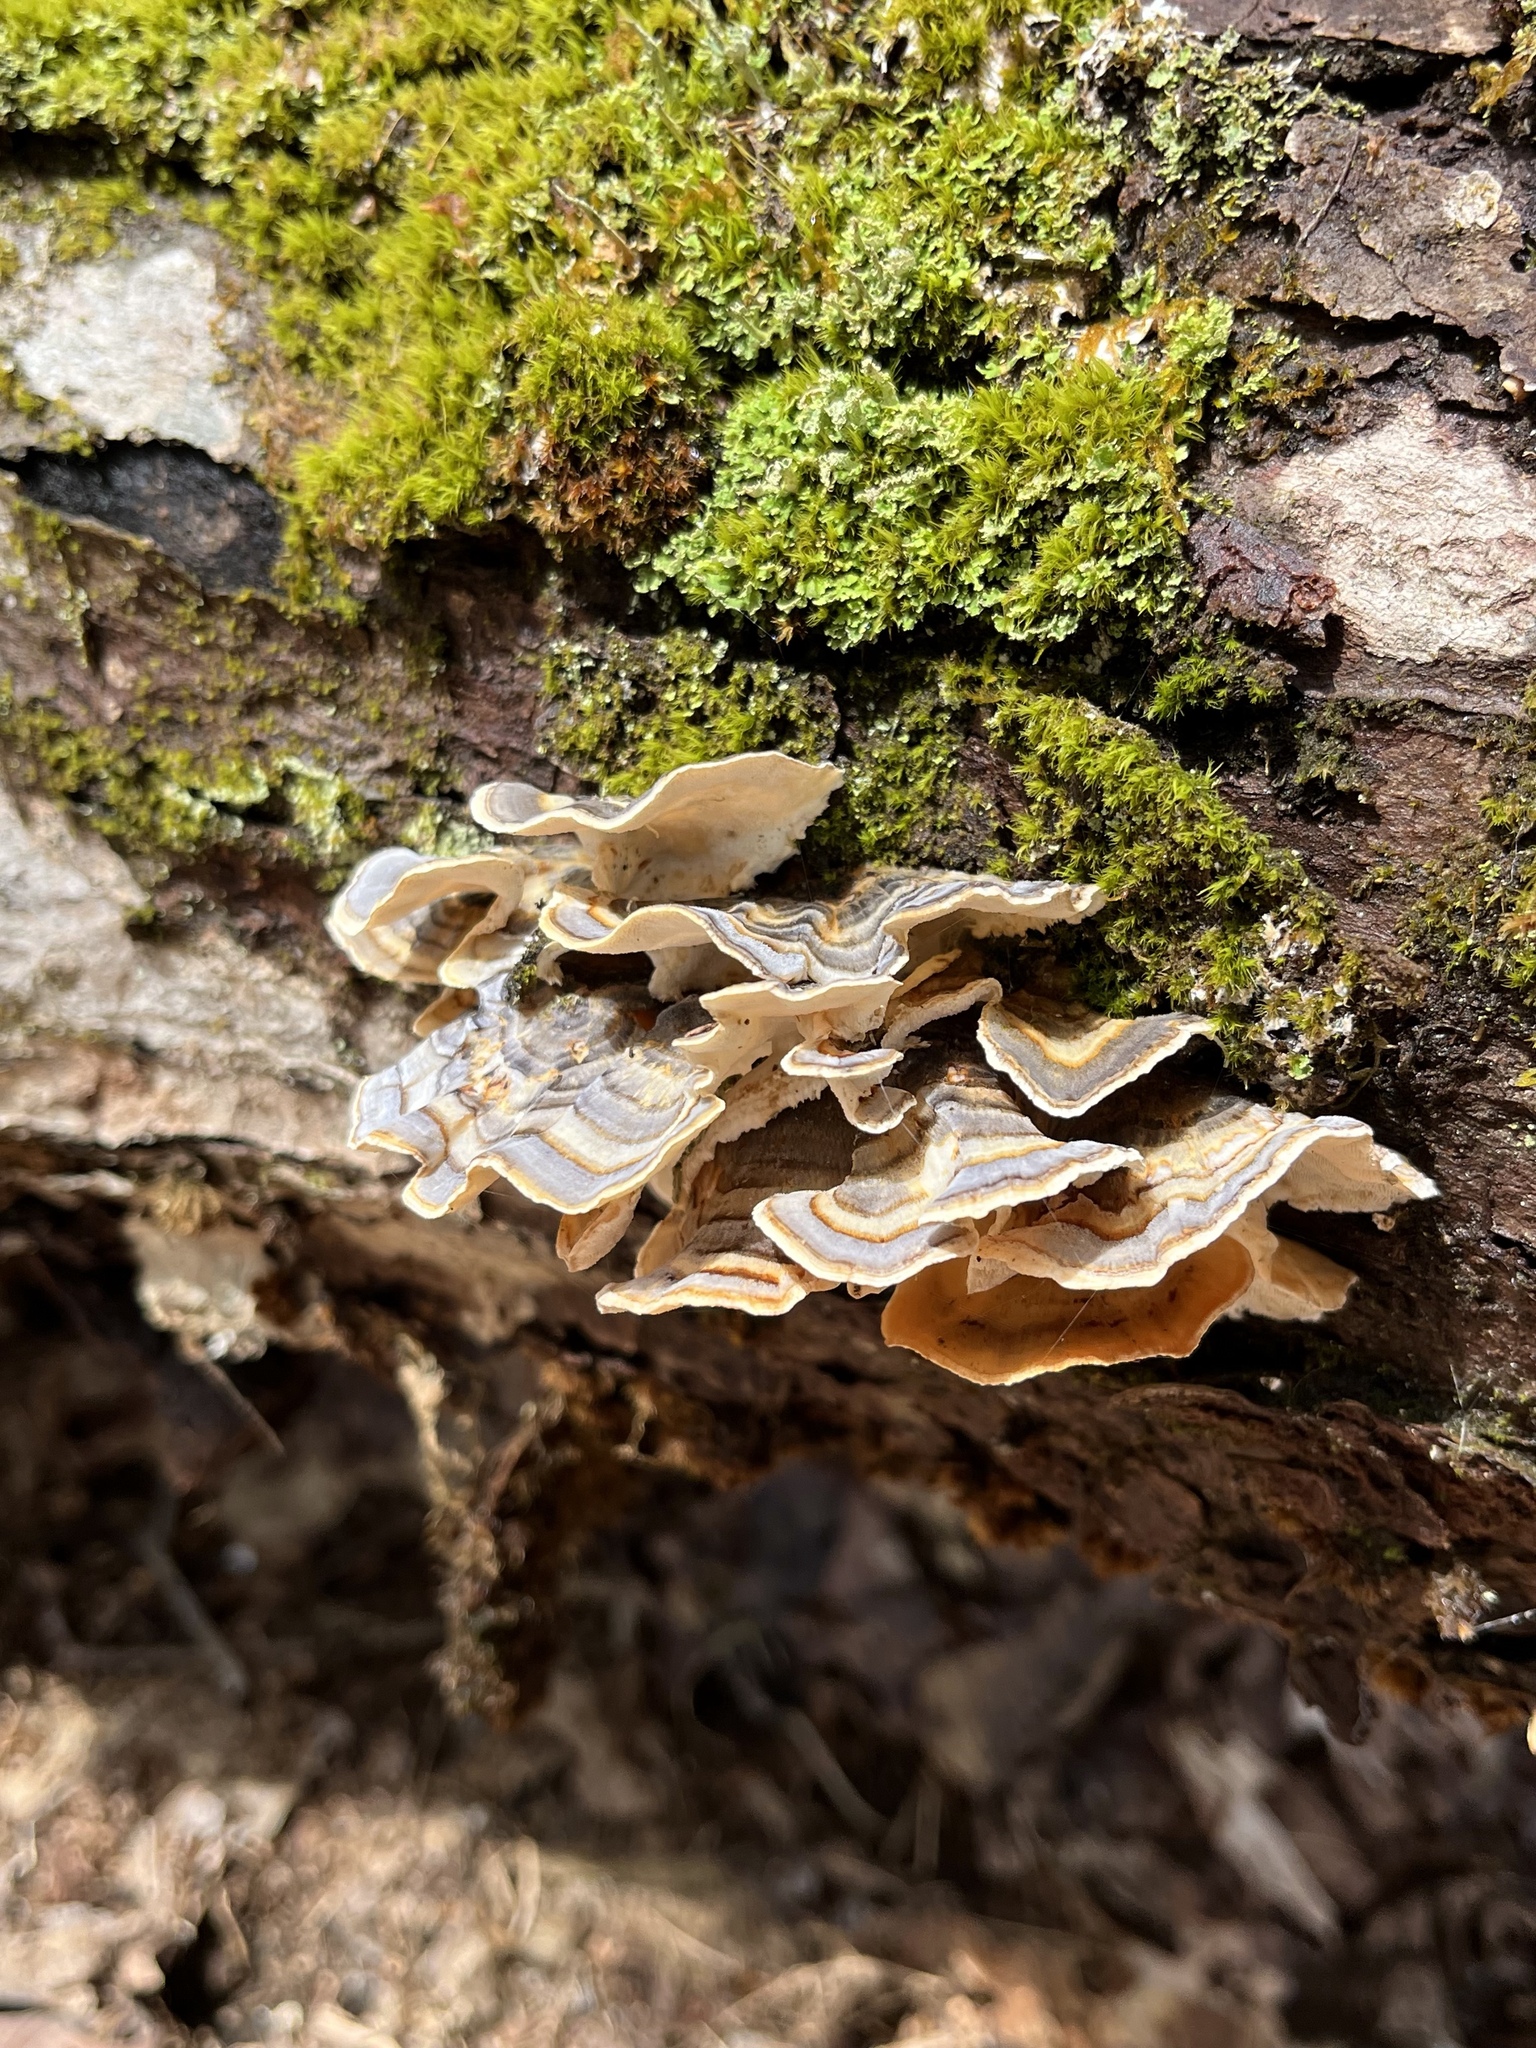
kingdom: Fungi
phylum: Basidiomycota
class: Agaricomycetes
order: Polyporales
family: Polyporaceae
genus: Trametes
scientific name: Trametes versicolor
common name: Turkeytail
